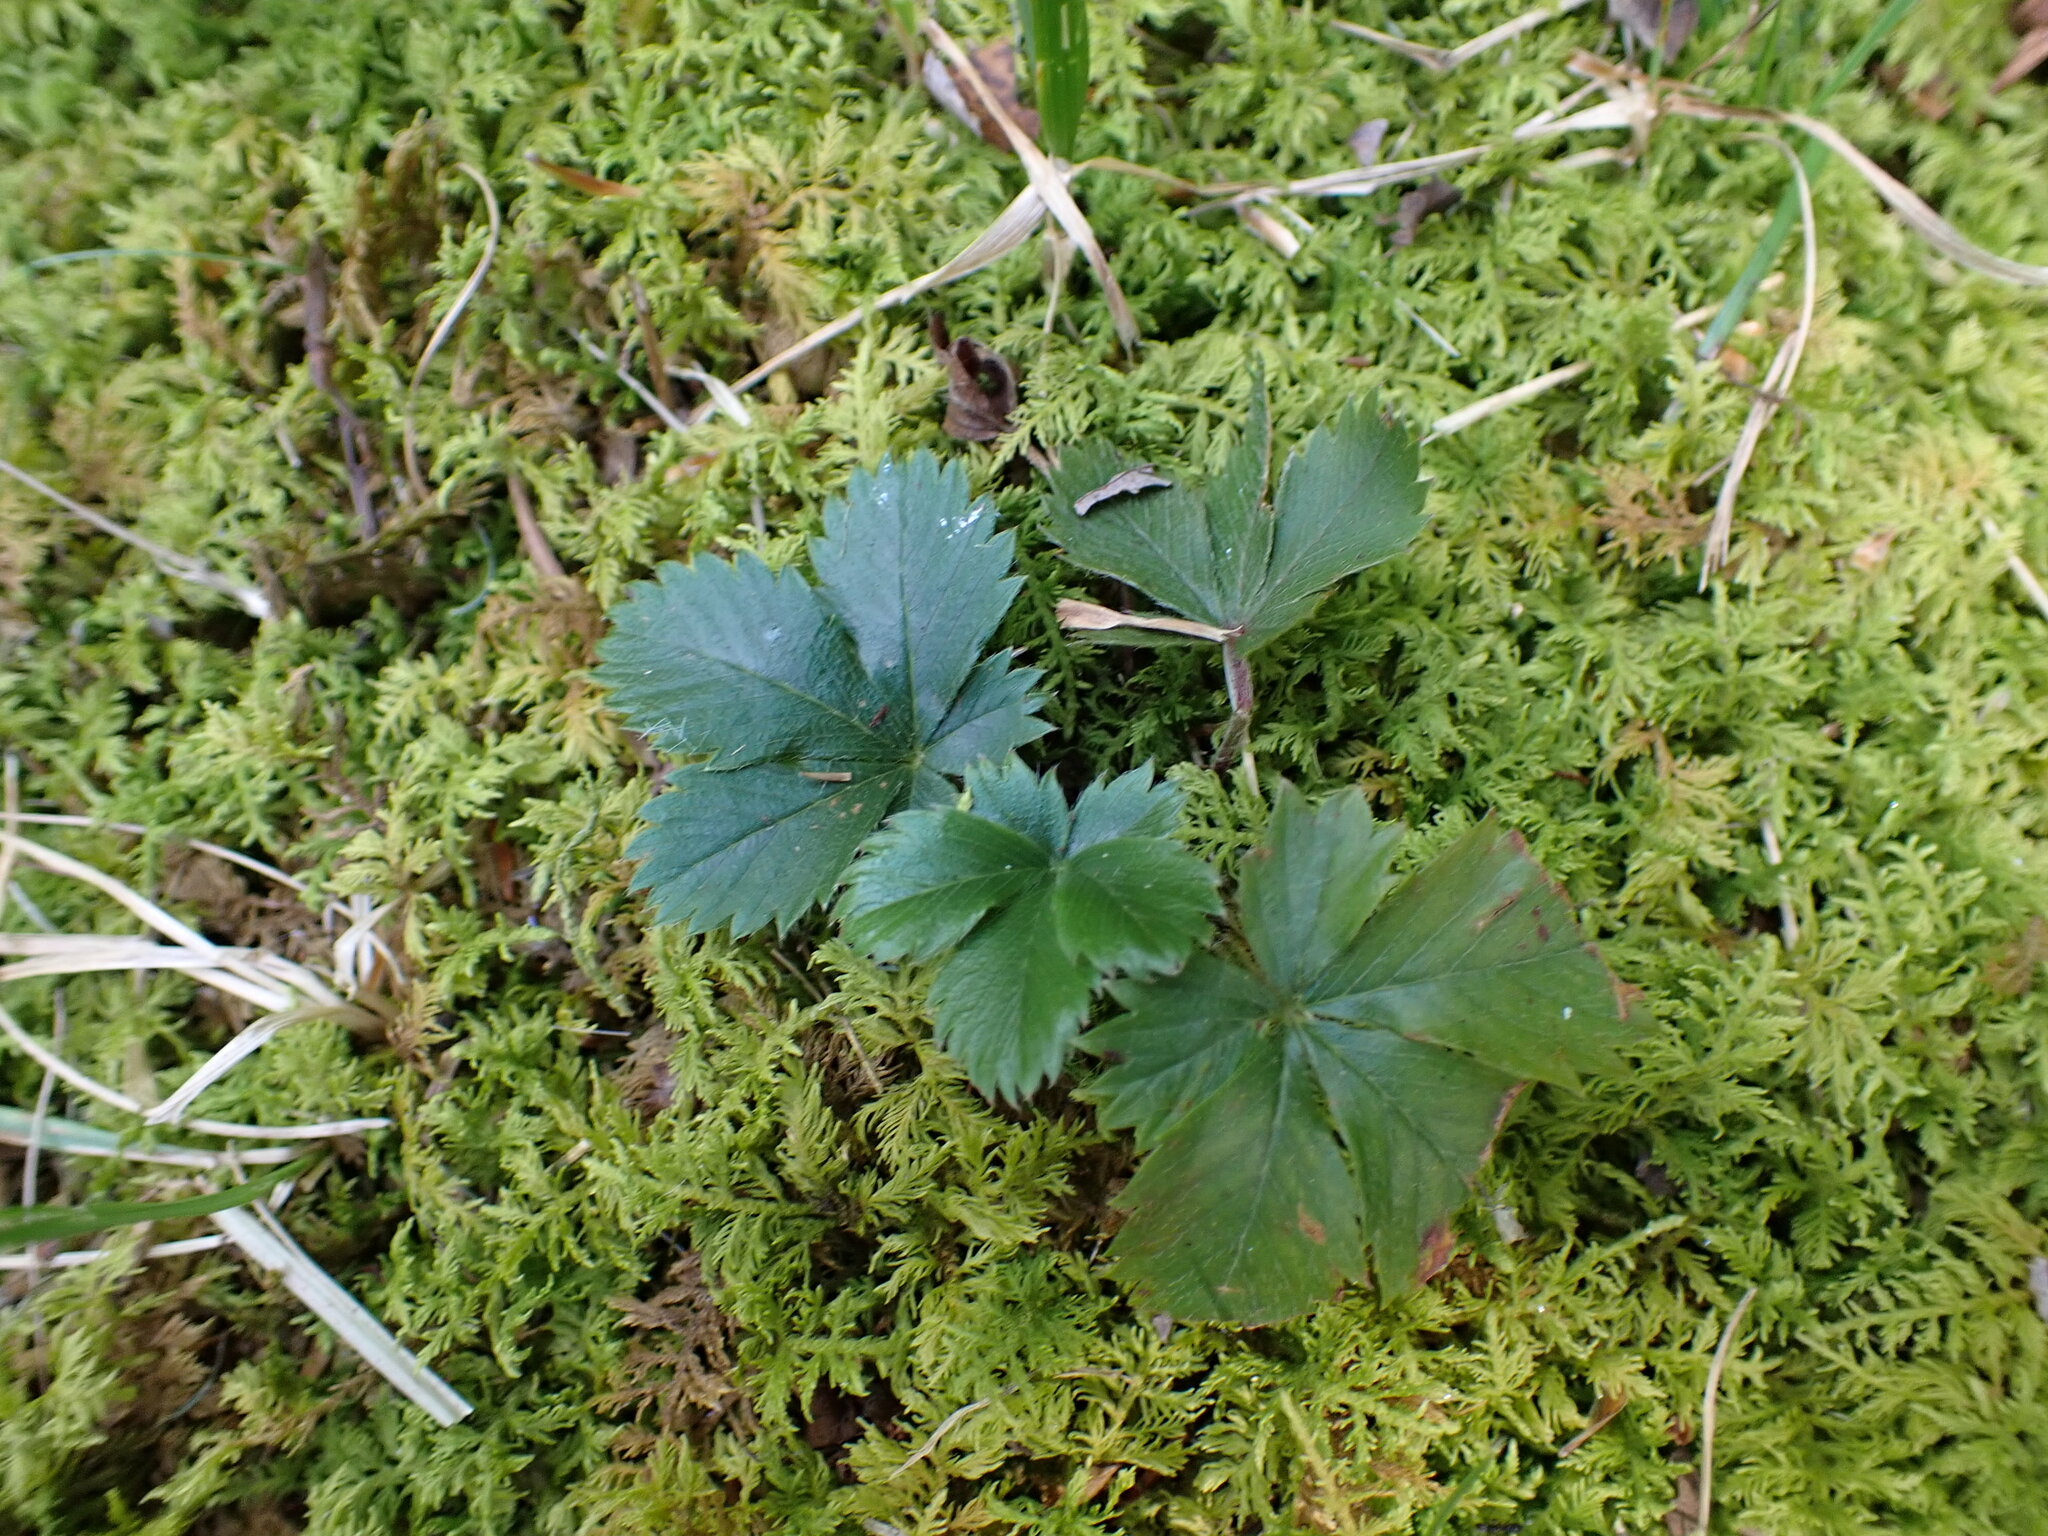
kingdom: Plantae
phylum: Tracheophyta
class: Magnoliopsida
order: Rosales
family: Rosaceae
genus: Potentilla
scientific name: Potentilla canadensis
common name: Canada cinquefoil
